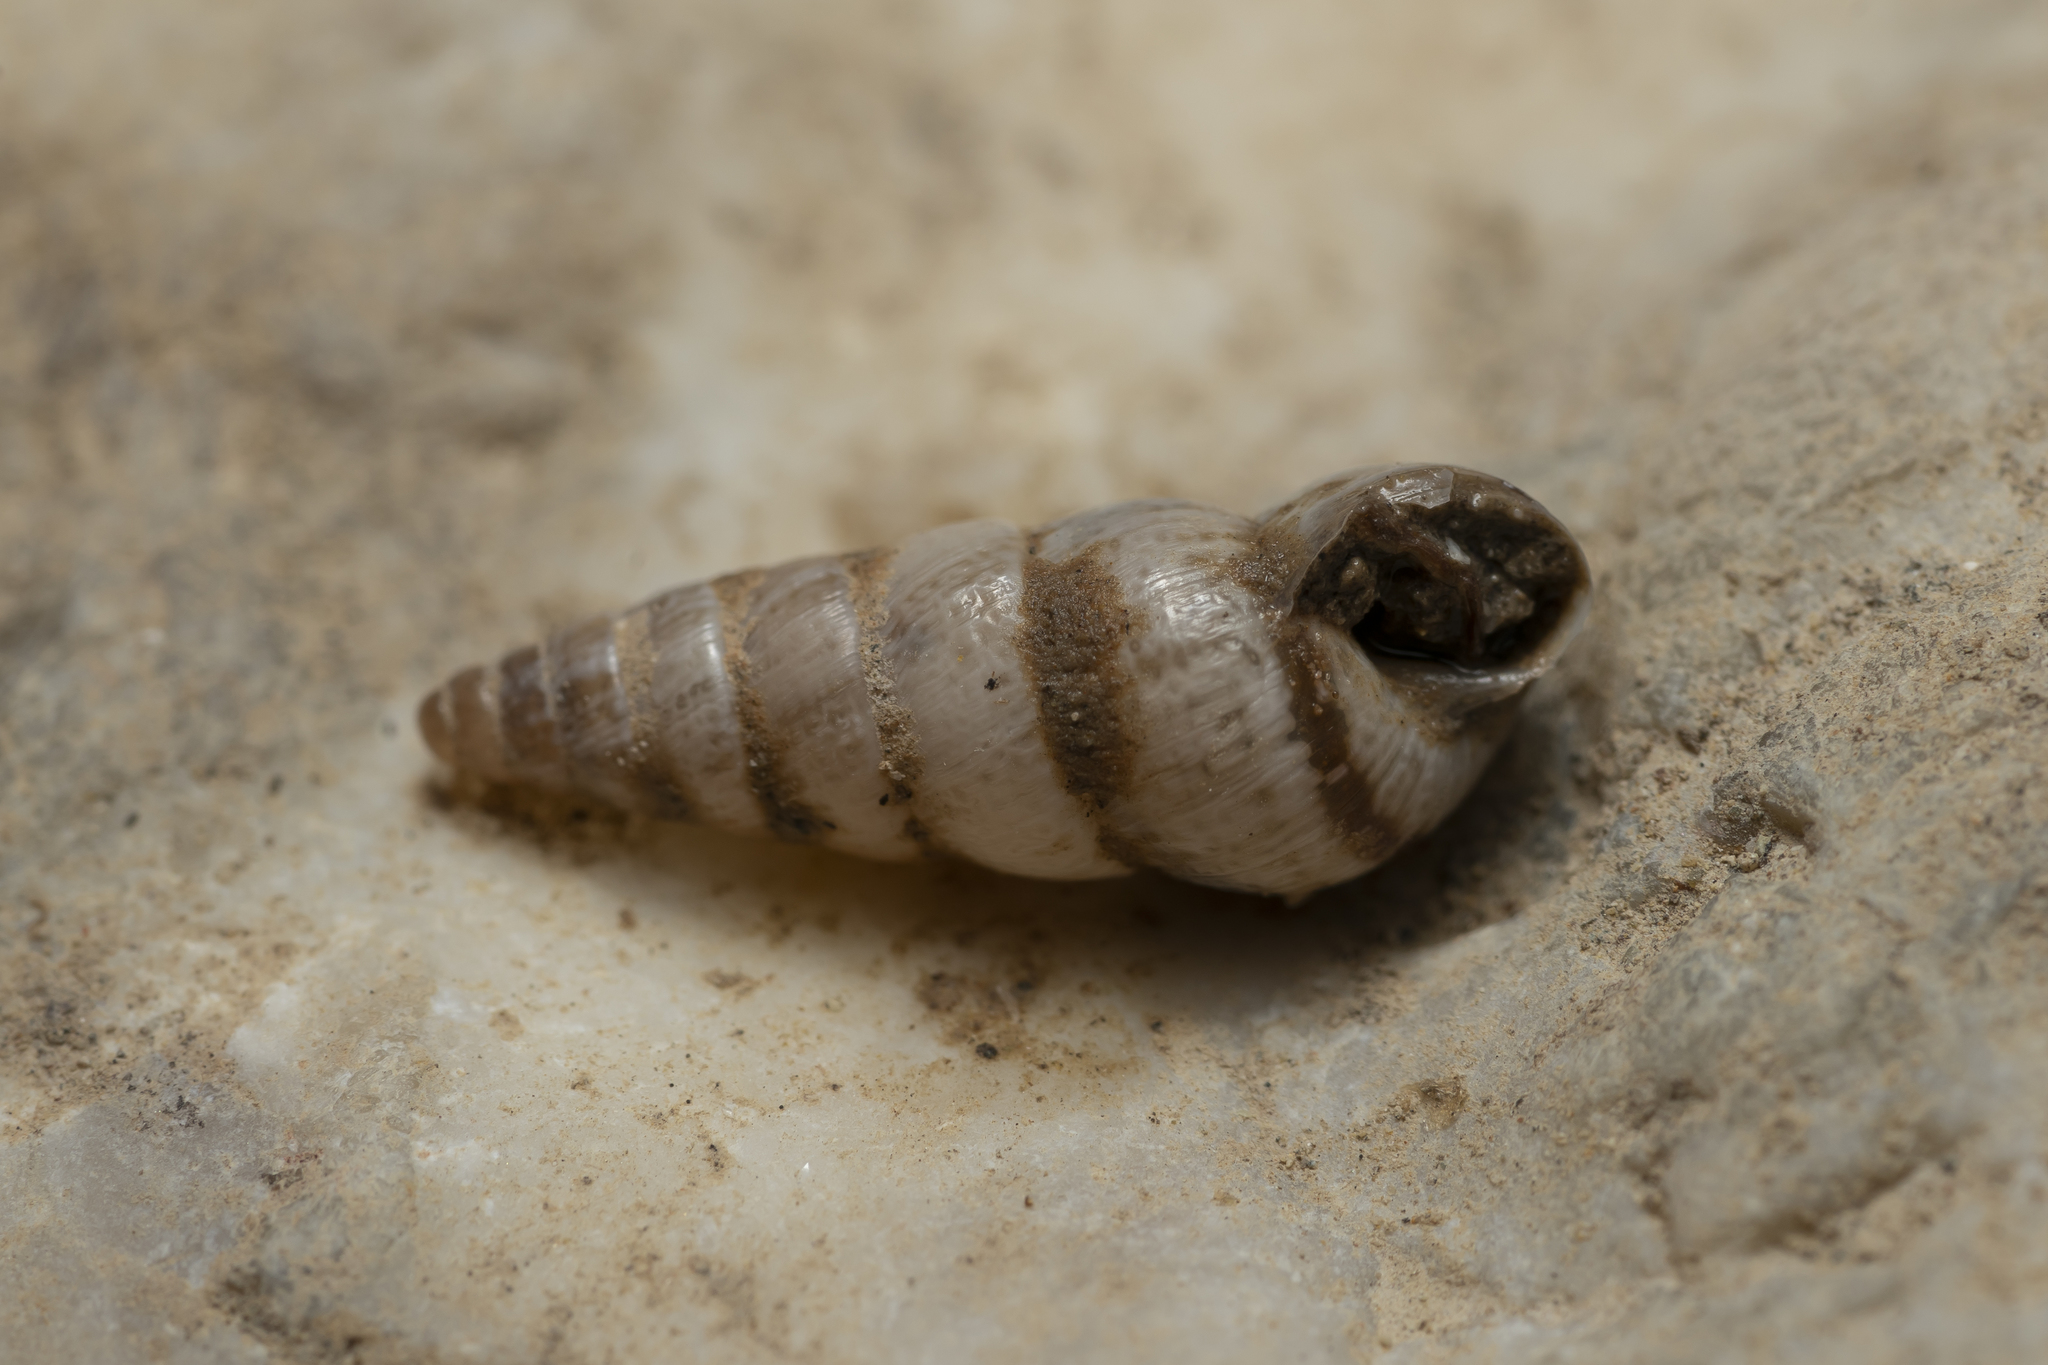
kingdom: Animalia
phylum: Mollusca
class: Gastropoda
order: Stylommatophora
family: Geomitridae
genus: Cochlicella
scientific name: Cochlicella acuta
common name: Pointed snail
